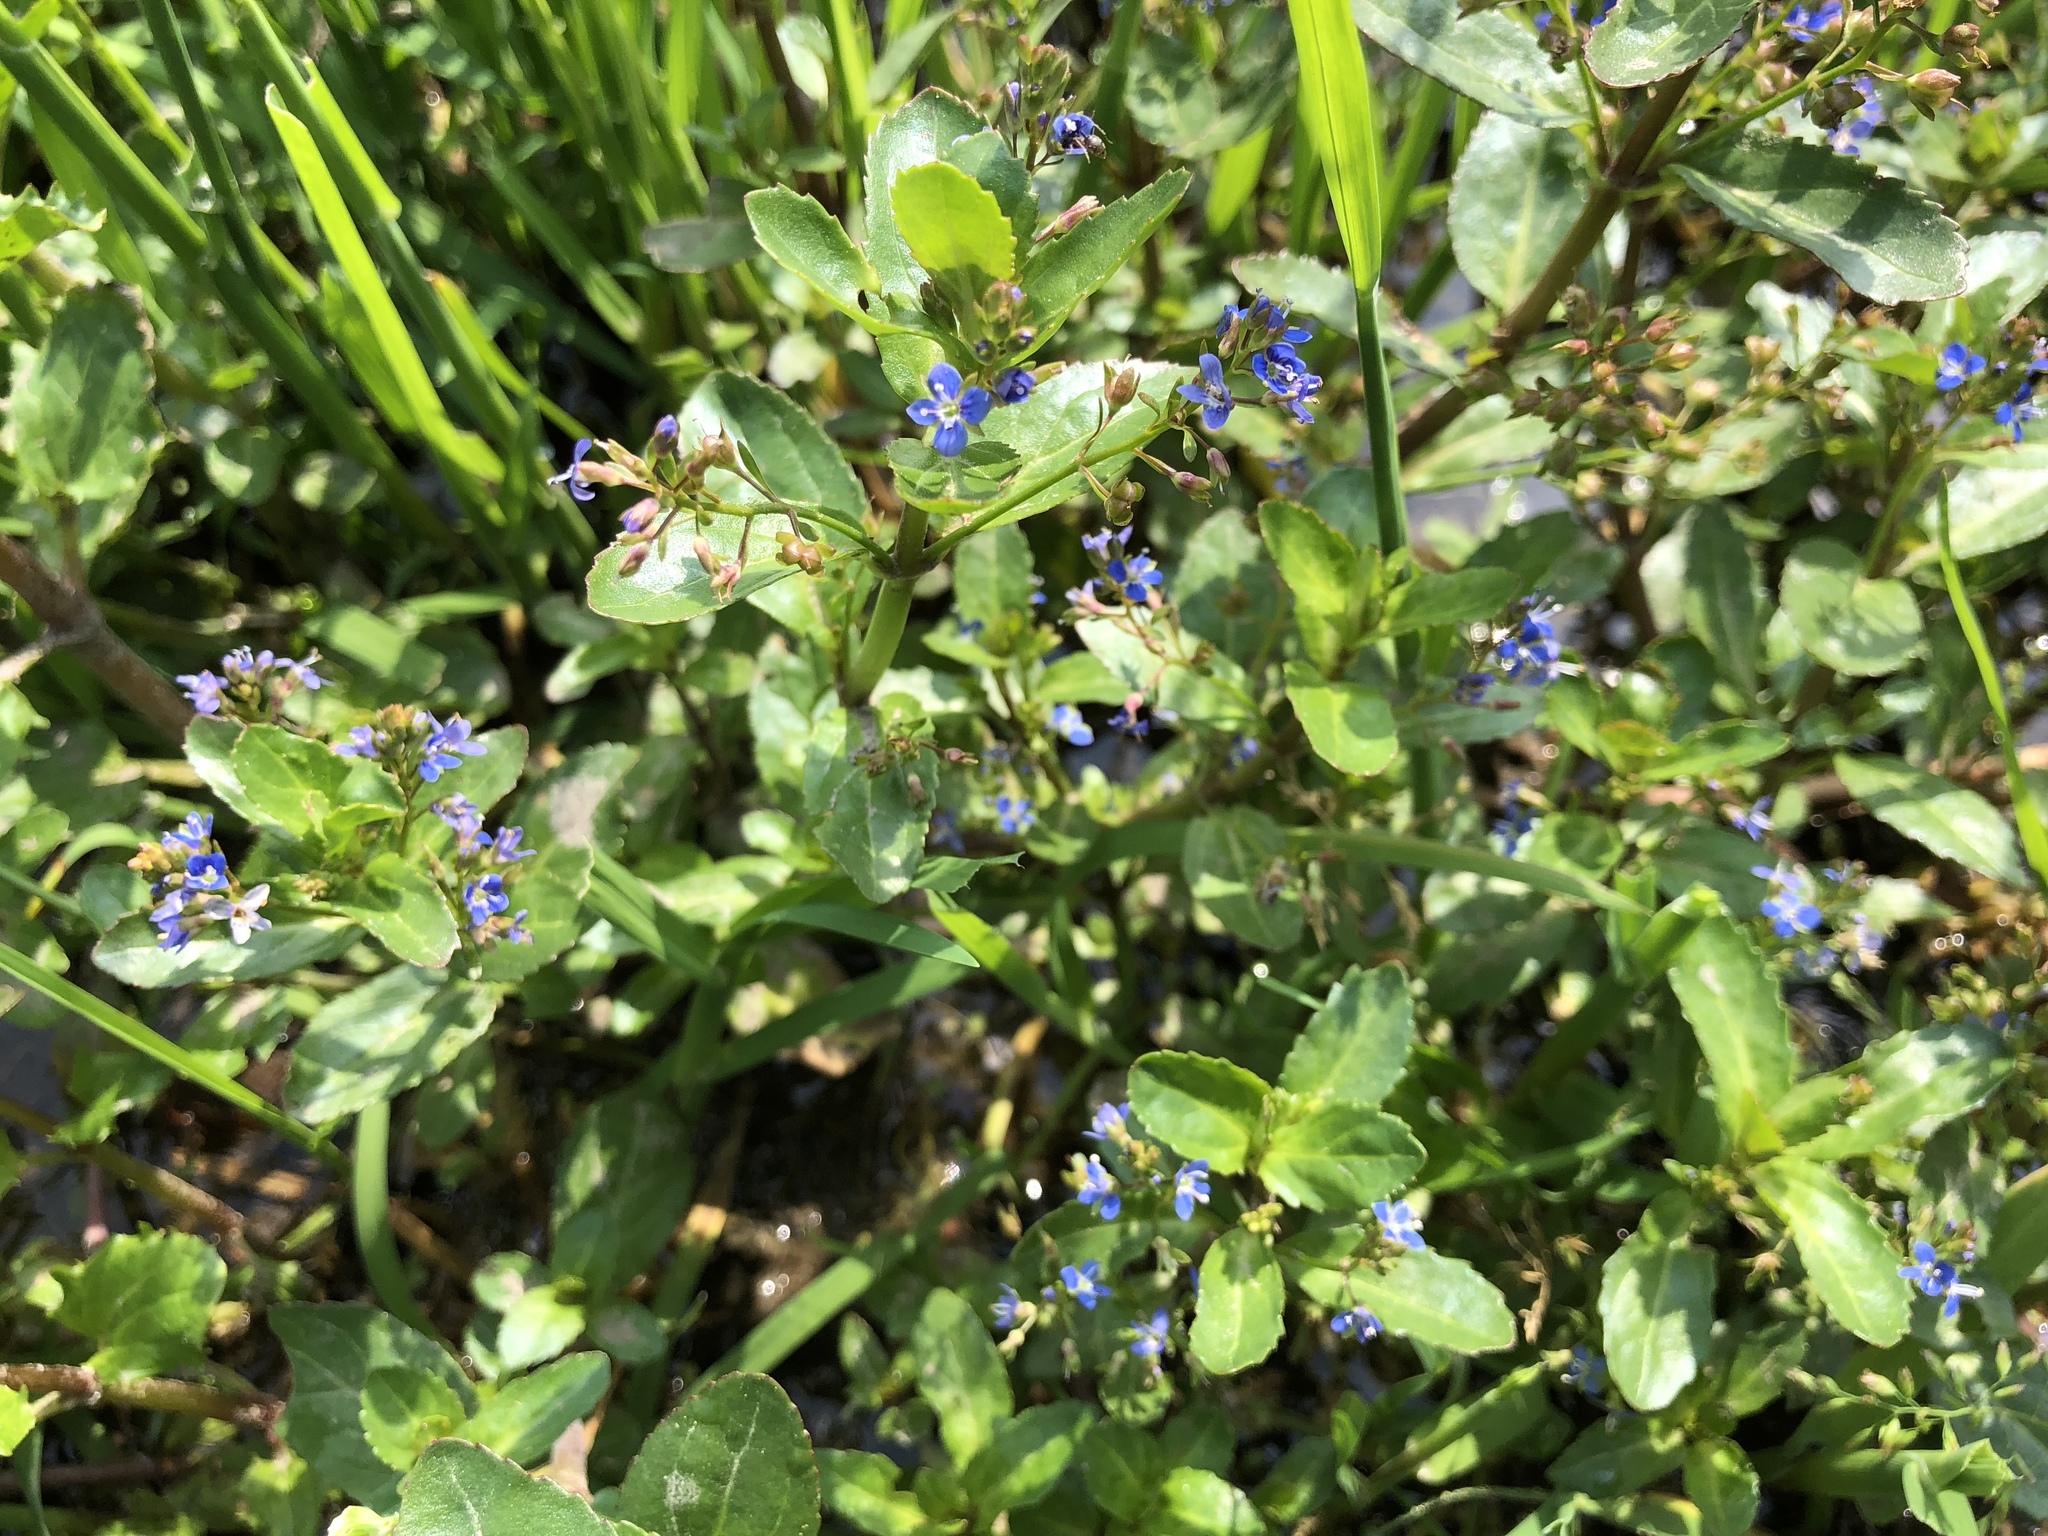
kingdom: Plantae
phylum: Tracheophyta
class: Magnoliopsida
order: Lamiales
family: Plantaginaceae
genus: Veronica
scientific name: Veronica beccabunga
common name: Brooklime
